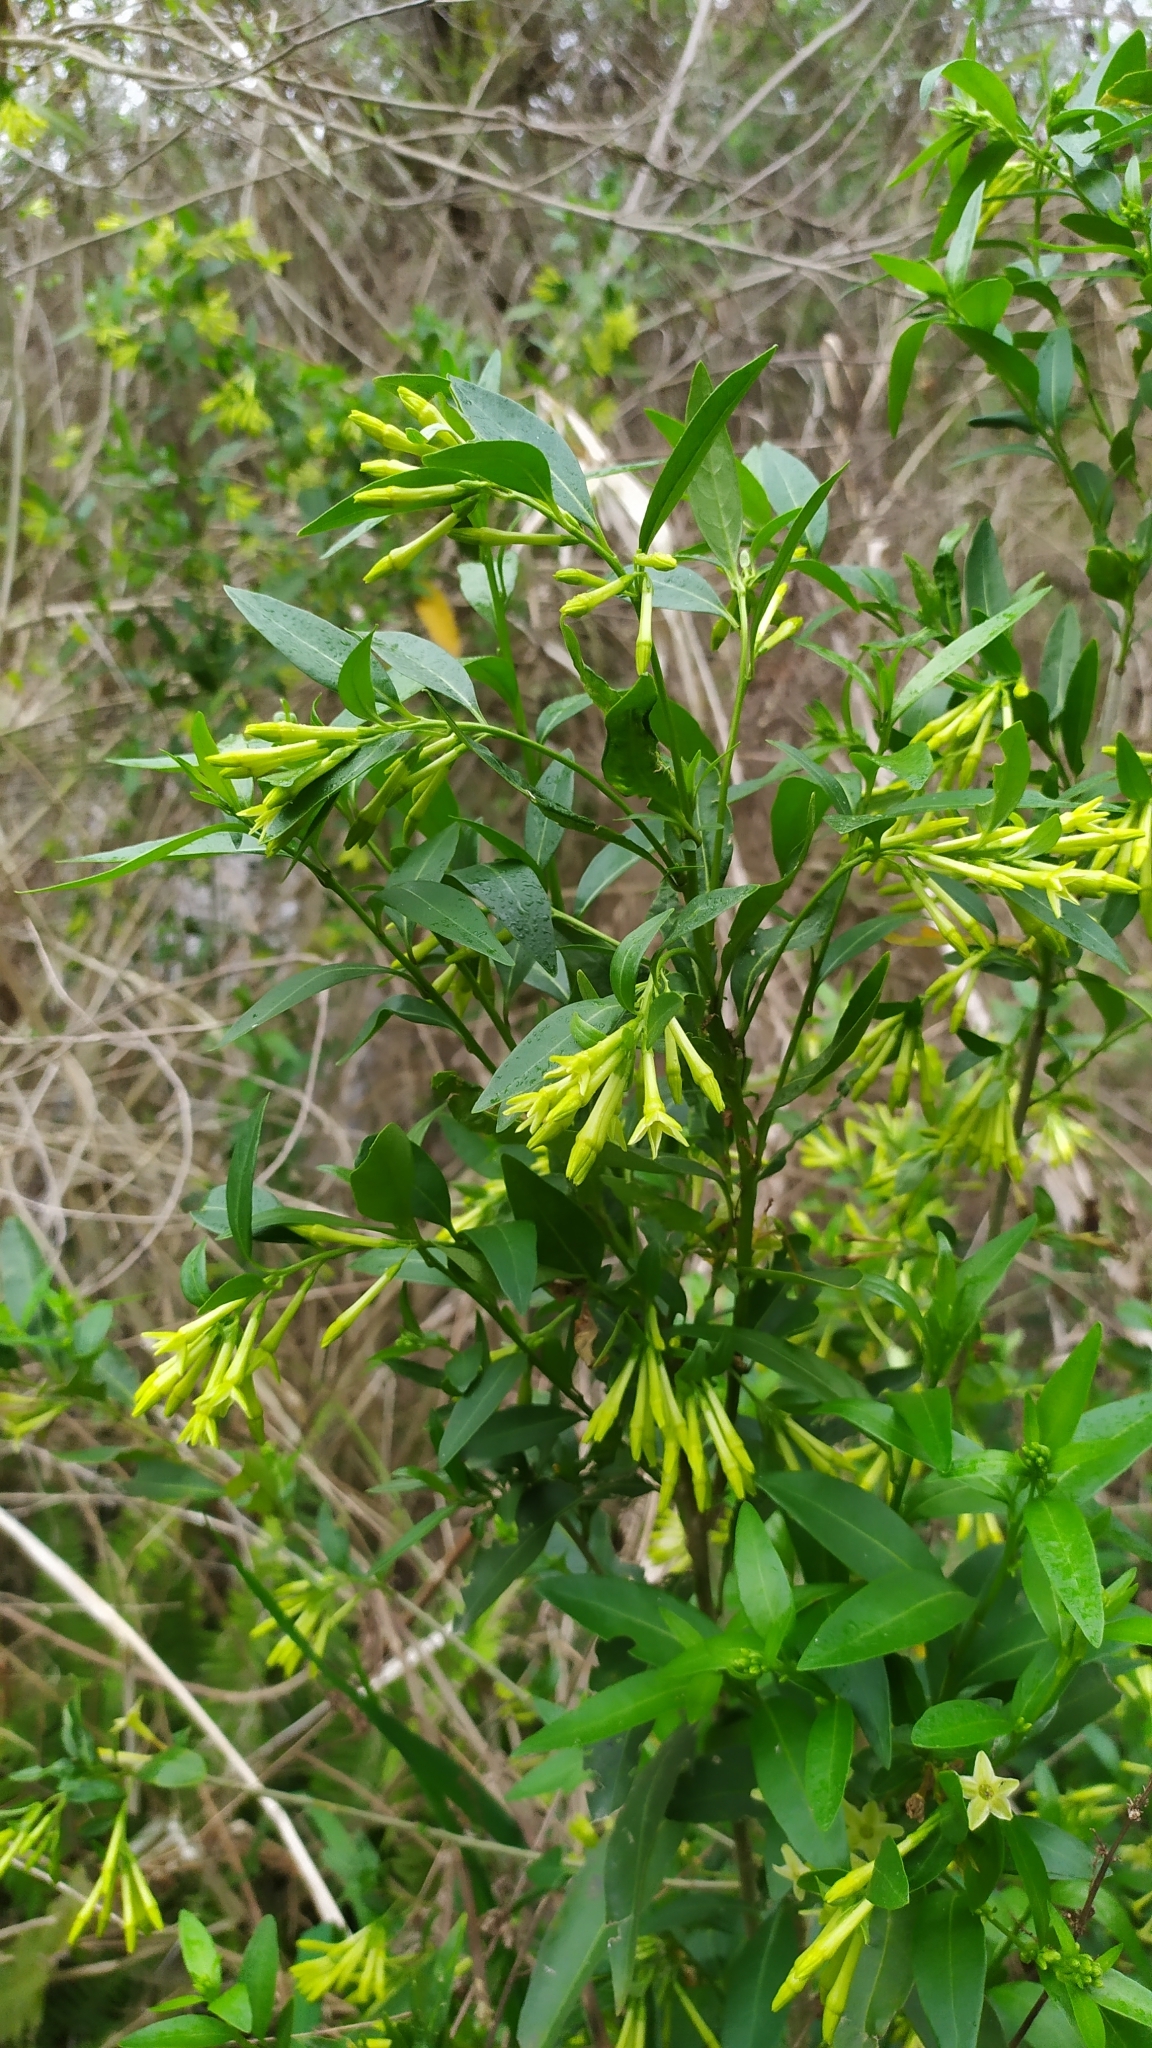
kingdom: Plantae
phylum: Tracheophyta
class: Magnoliopsida
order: Solanales
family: Solanaceae
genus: Cestrum
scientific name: Cestrum parqui
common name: Chilean cestrum
